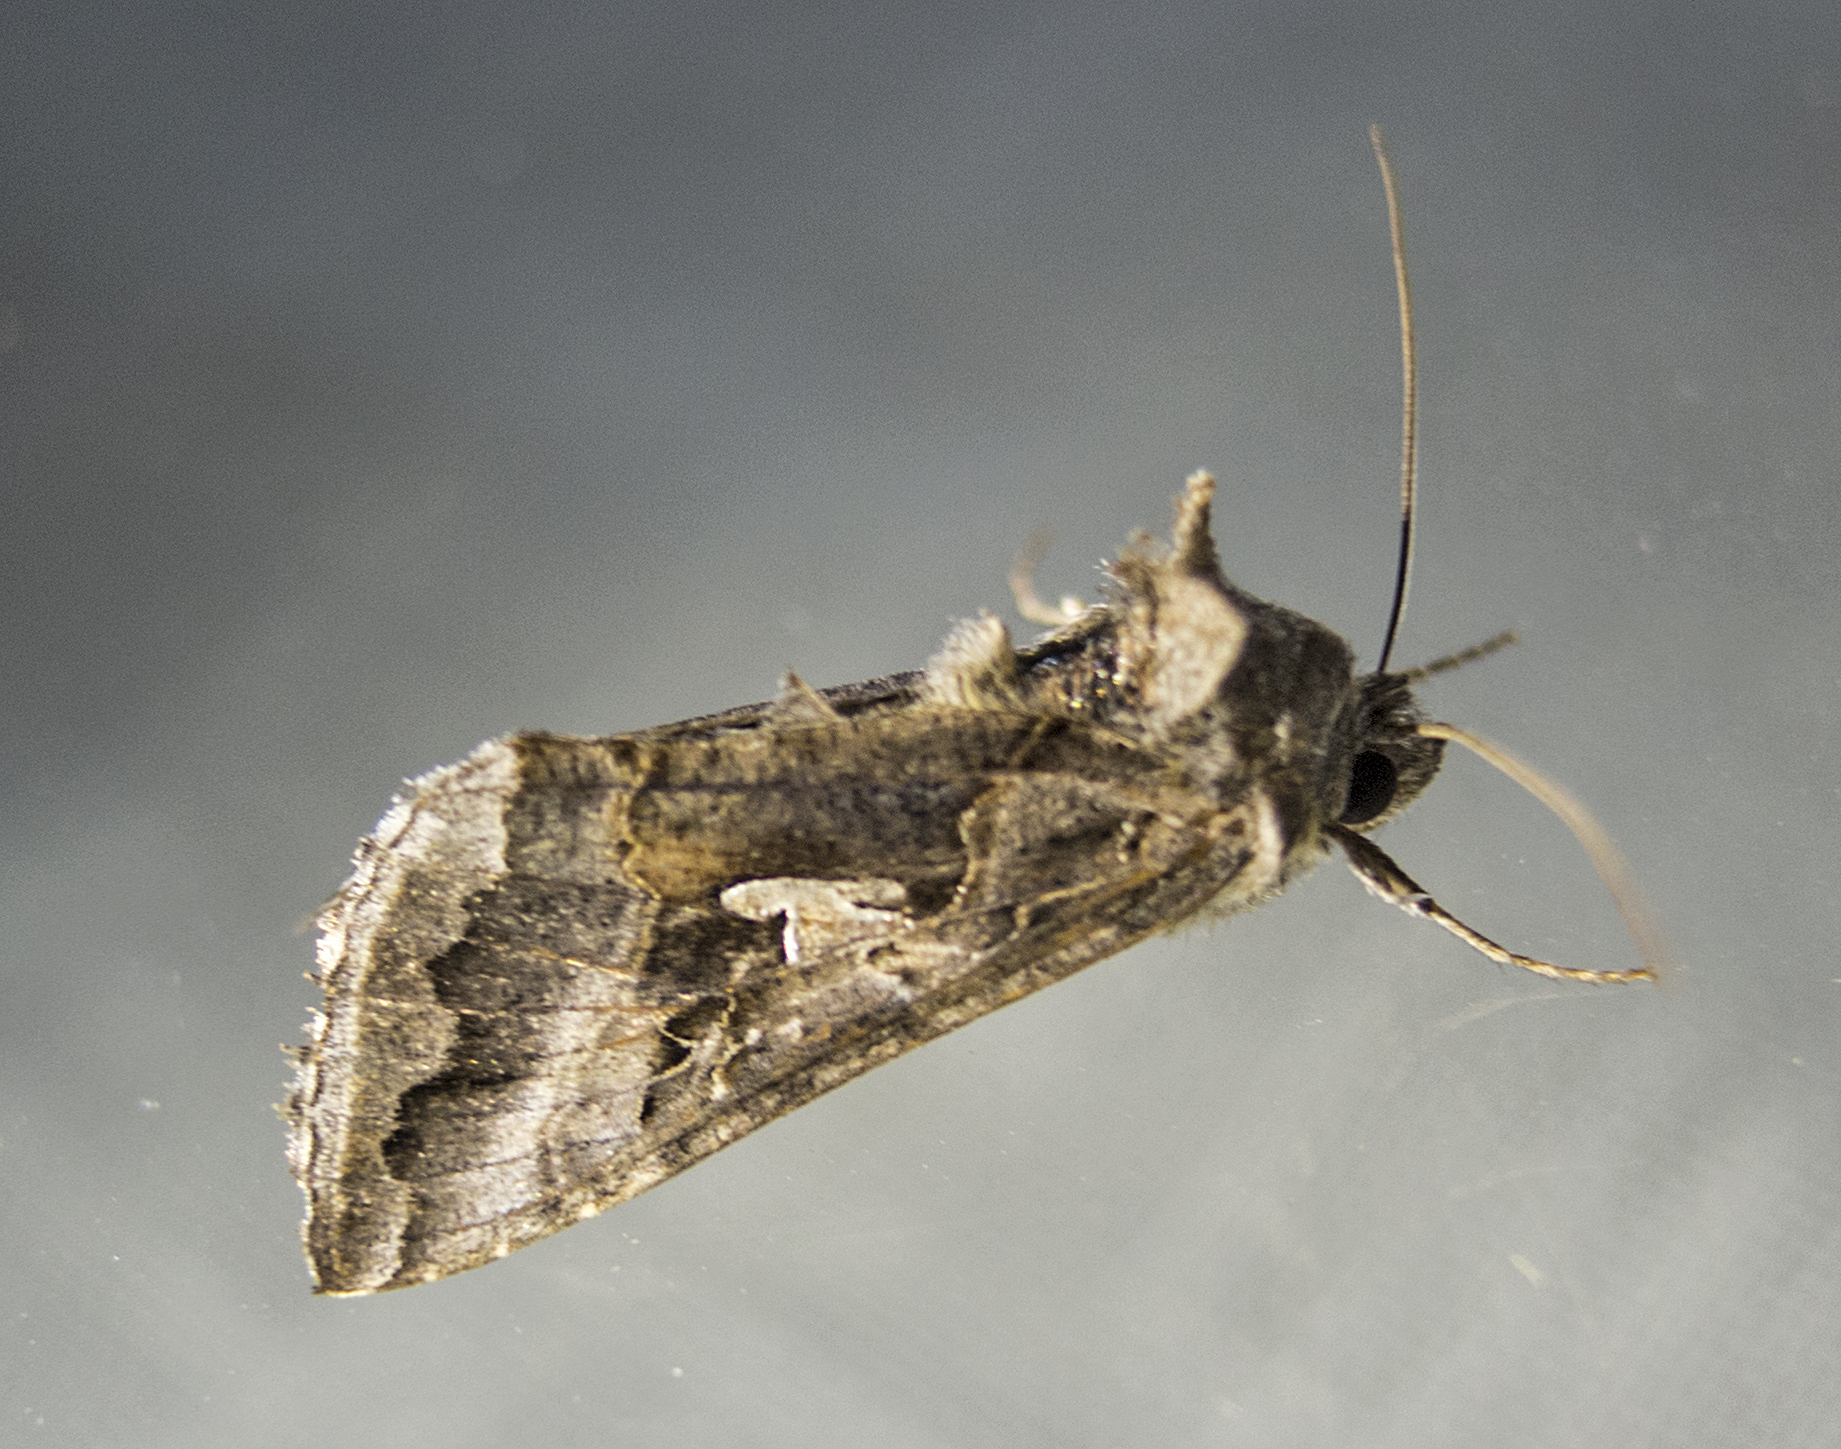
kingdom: Animalia
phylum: Arthropoda
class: Insecta
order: Lepidoptera
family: Noctuidae
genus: Autographa
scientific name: Autographa gamma
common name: Silver y
